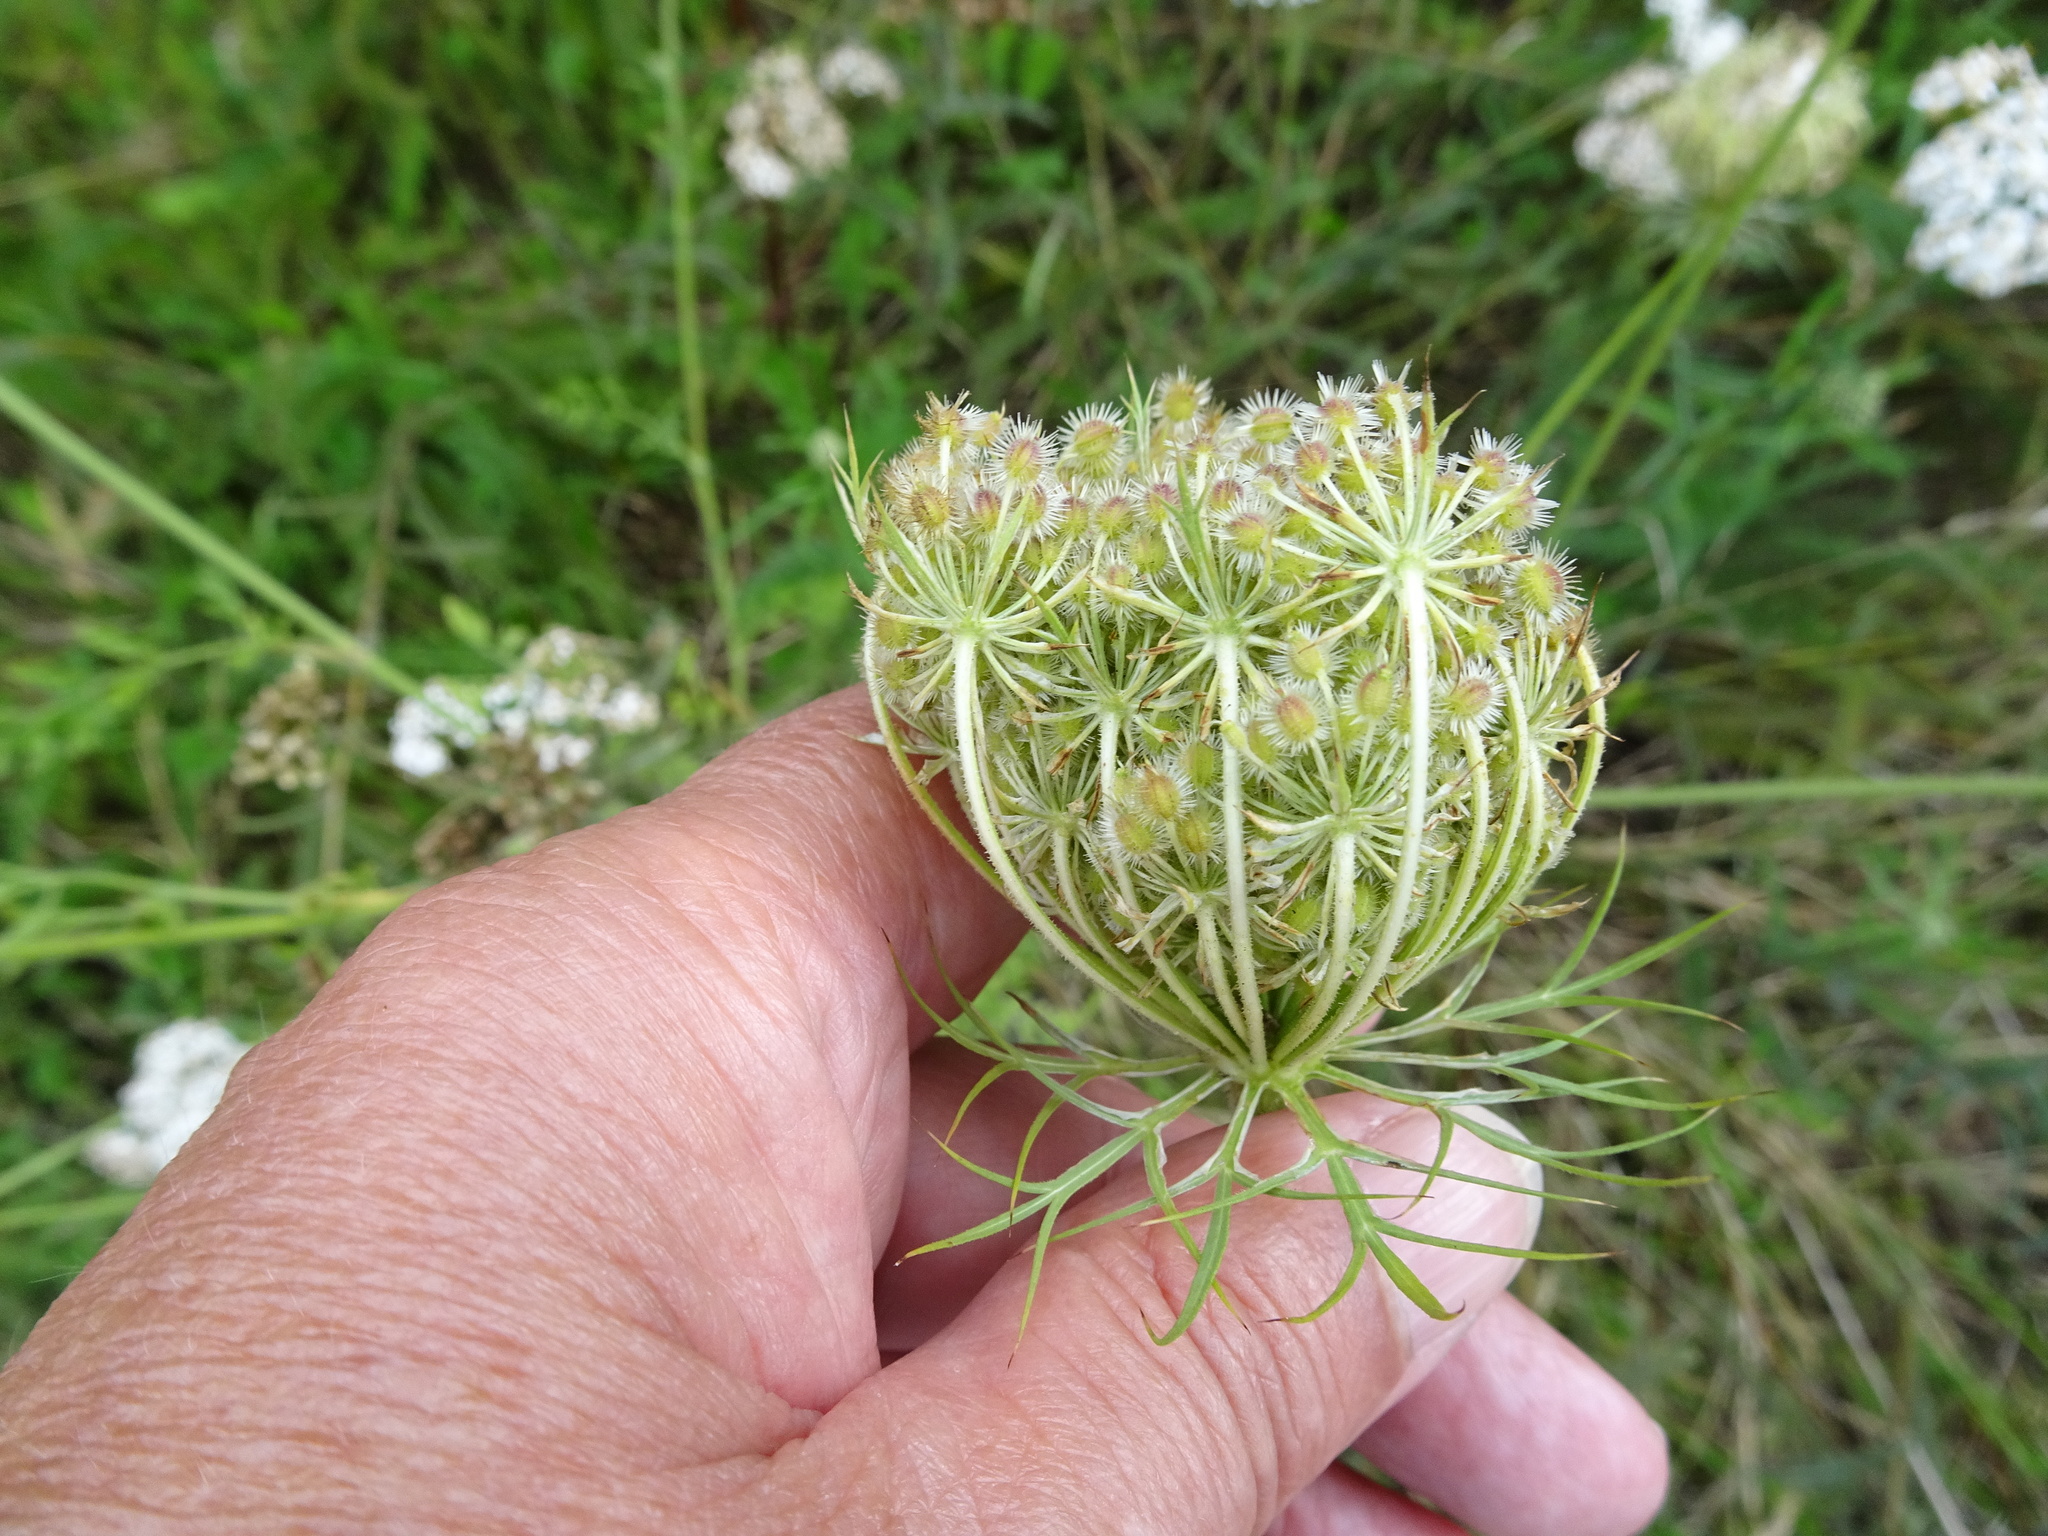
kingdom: Plantae
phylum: Tracheophyta
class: Magnoliopsida
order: Apiales
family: Apiaceae
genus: Daucus
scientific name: Daucus carota
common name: Wild carrot
